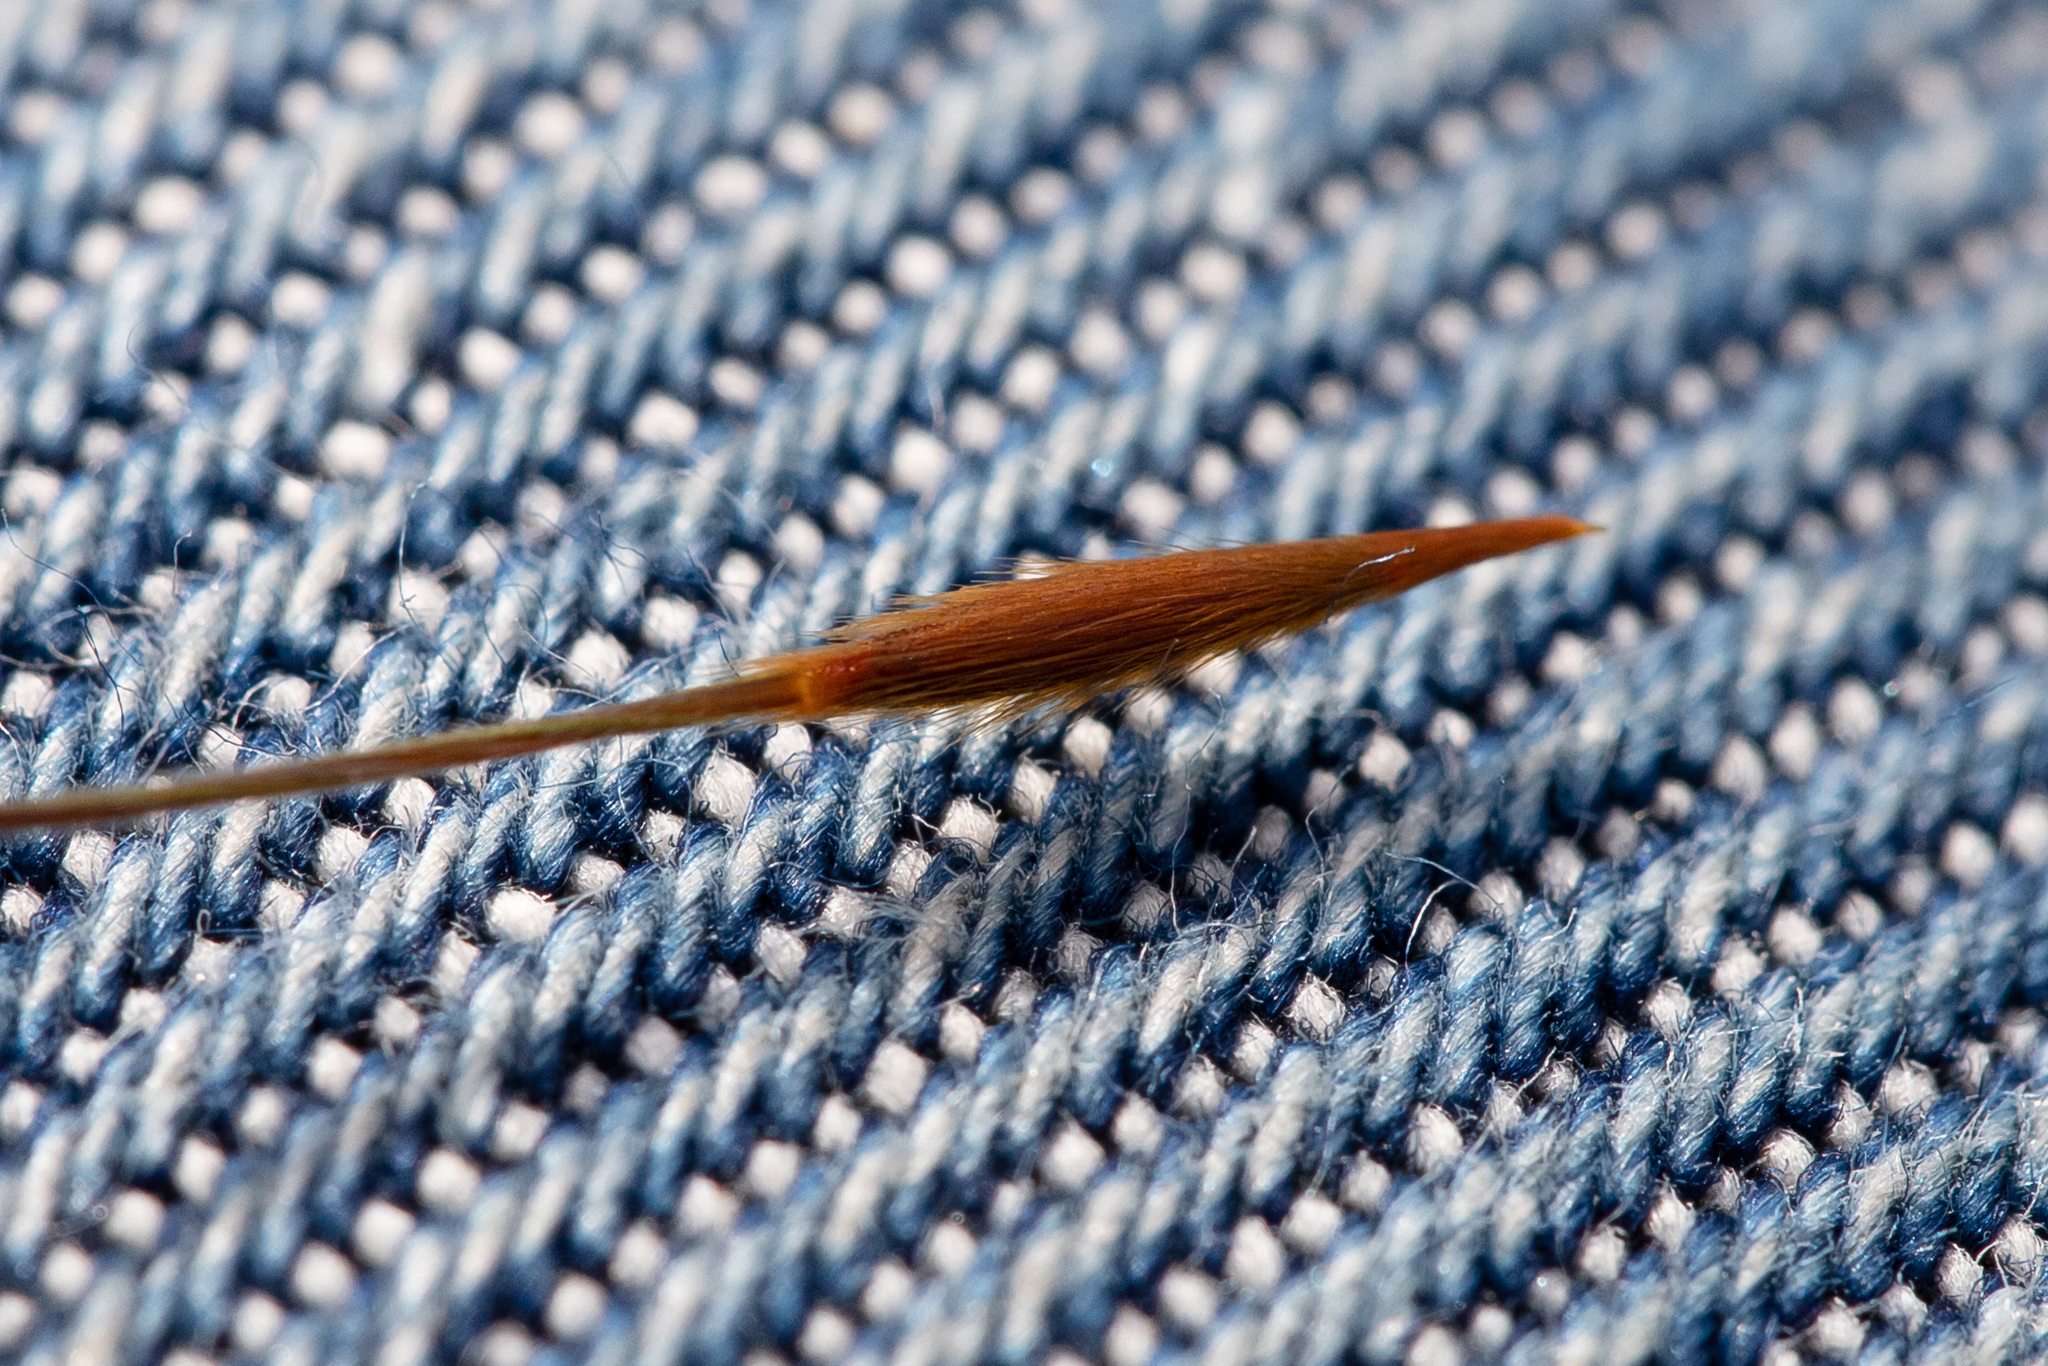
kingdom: Plantae
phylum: Tracheophyta
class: Liliopsida
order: Poales
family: Poaceae
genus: Austrostipa
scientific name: Austrostipa flavescens
